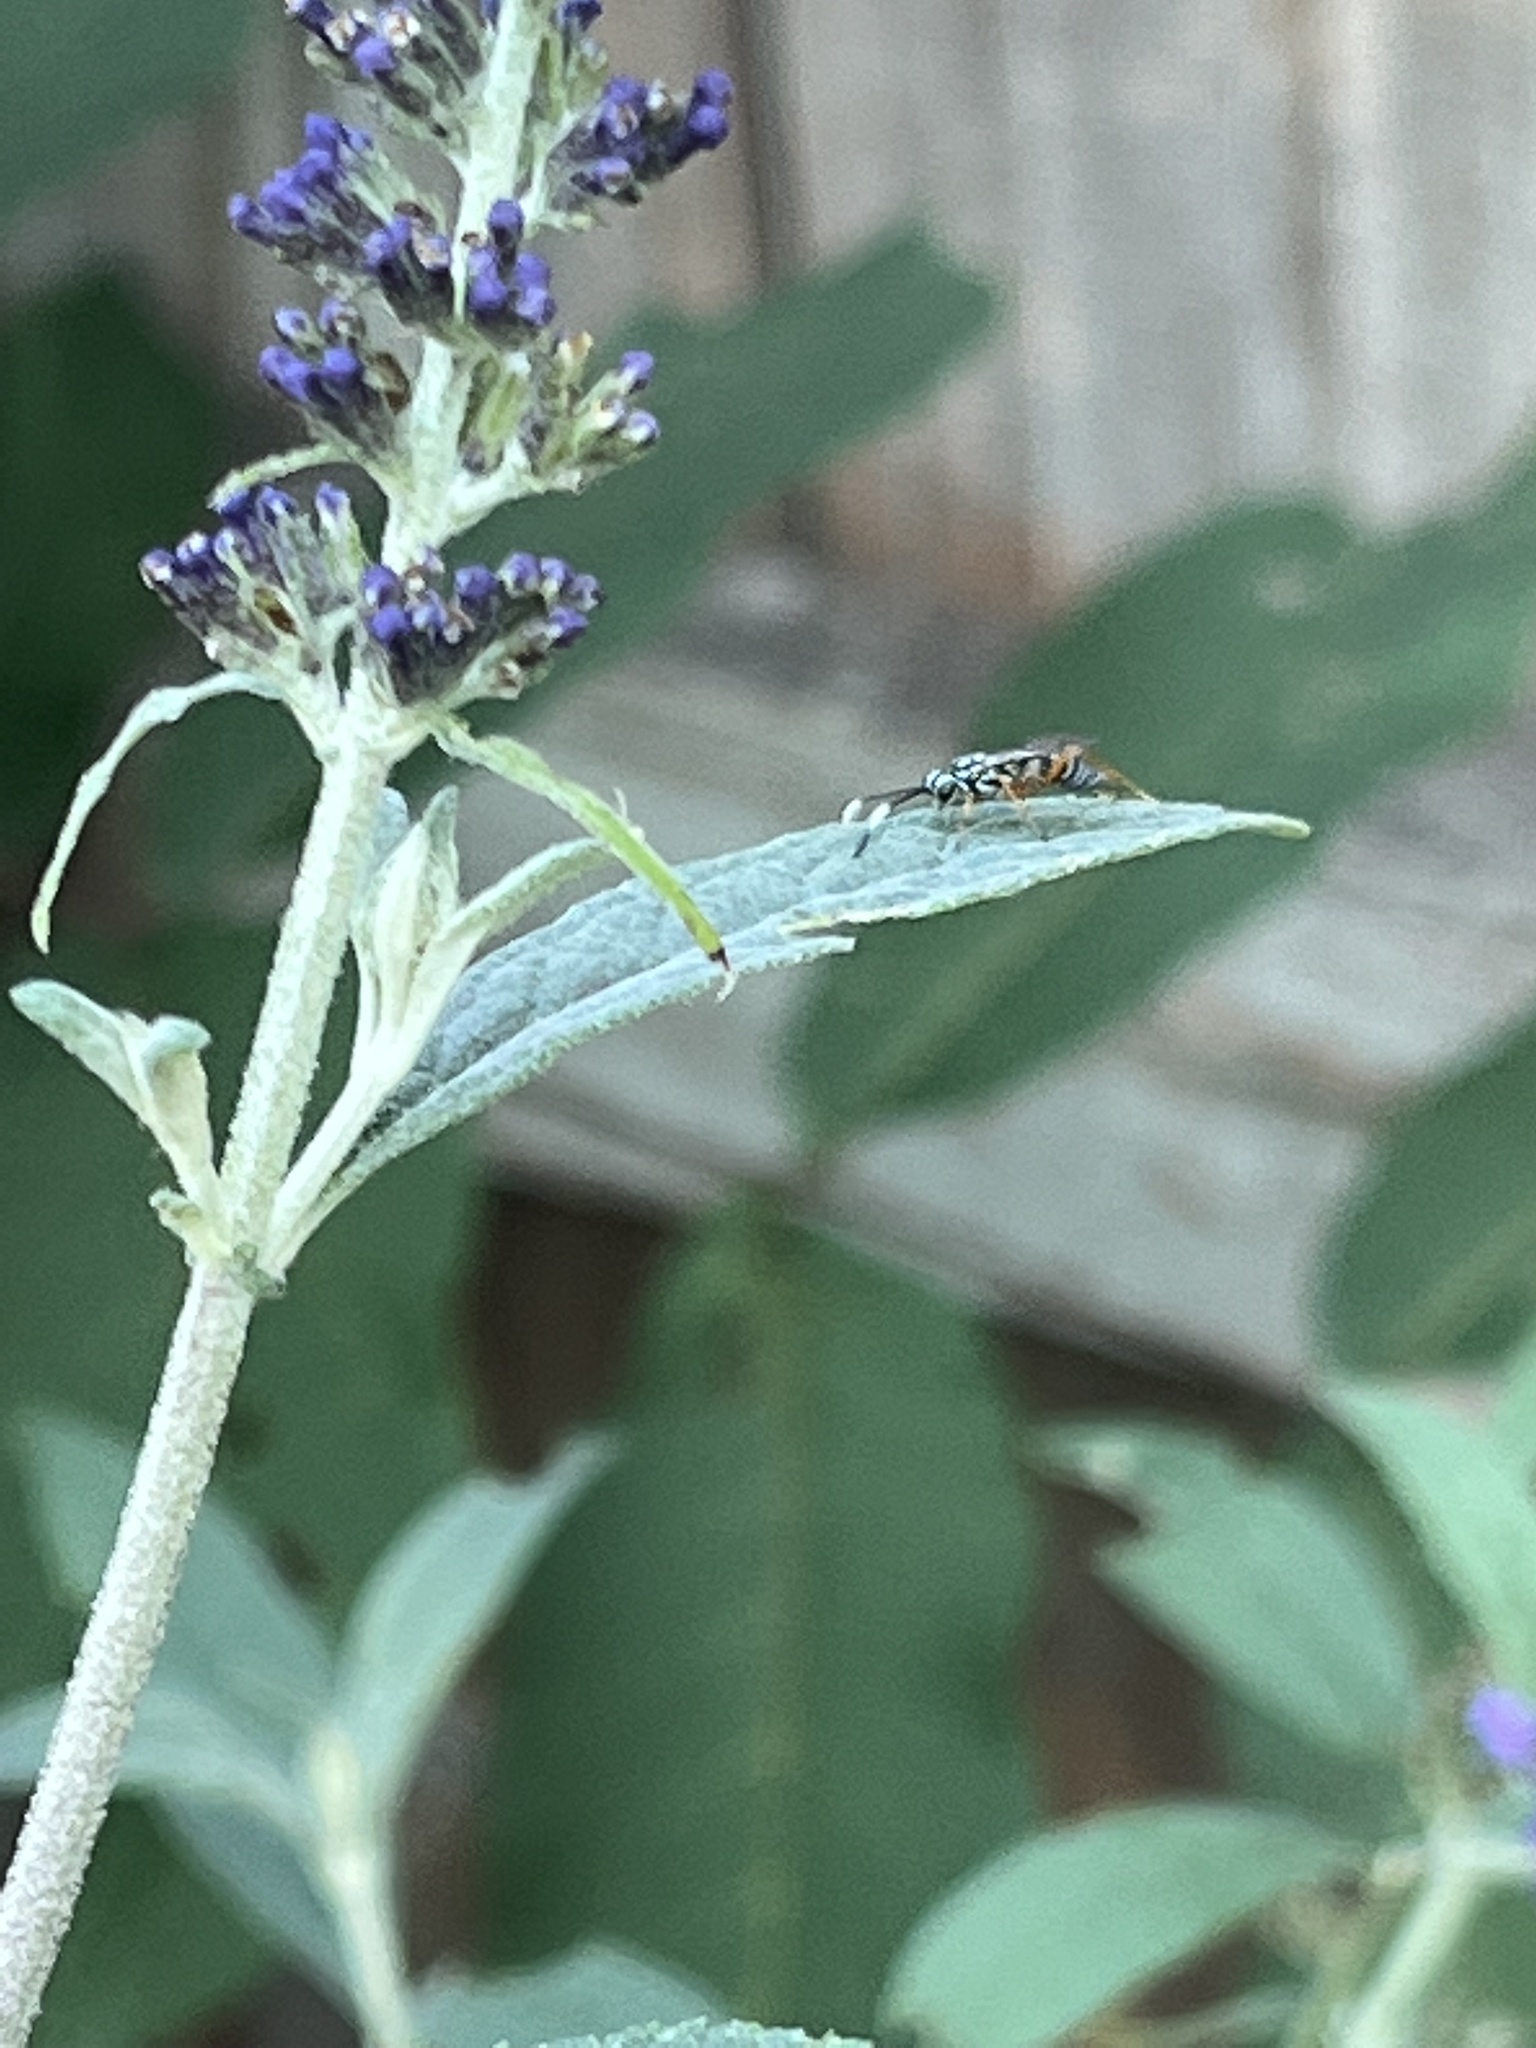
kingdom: Animalia
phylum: Arthropoda
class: Insecta
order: Hymenoptera
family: Ichneumonidae
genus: Lymeon
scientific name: Lymeon orbus
